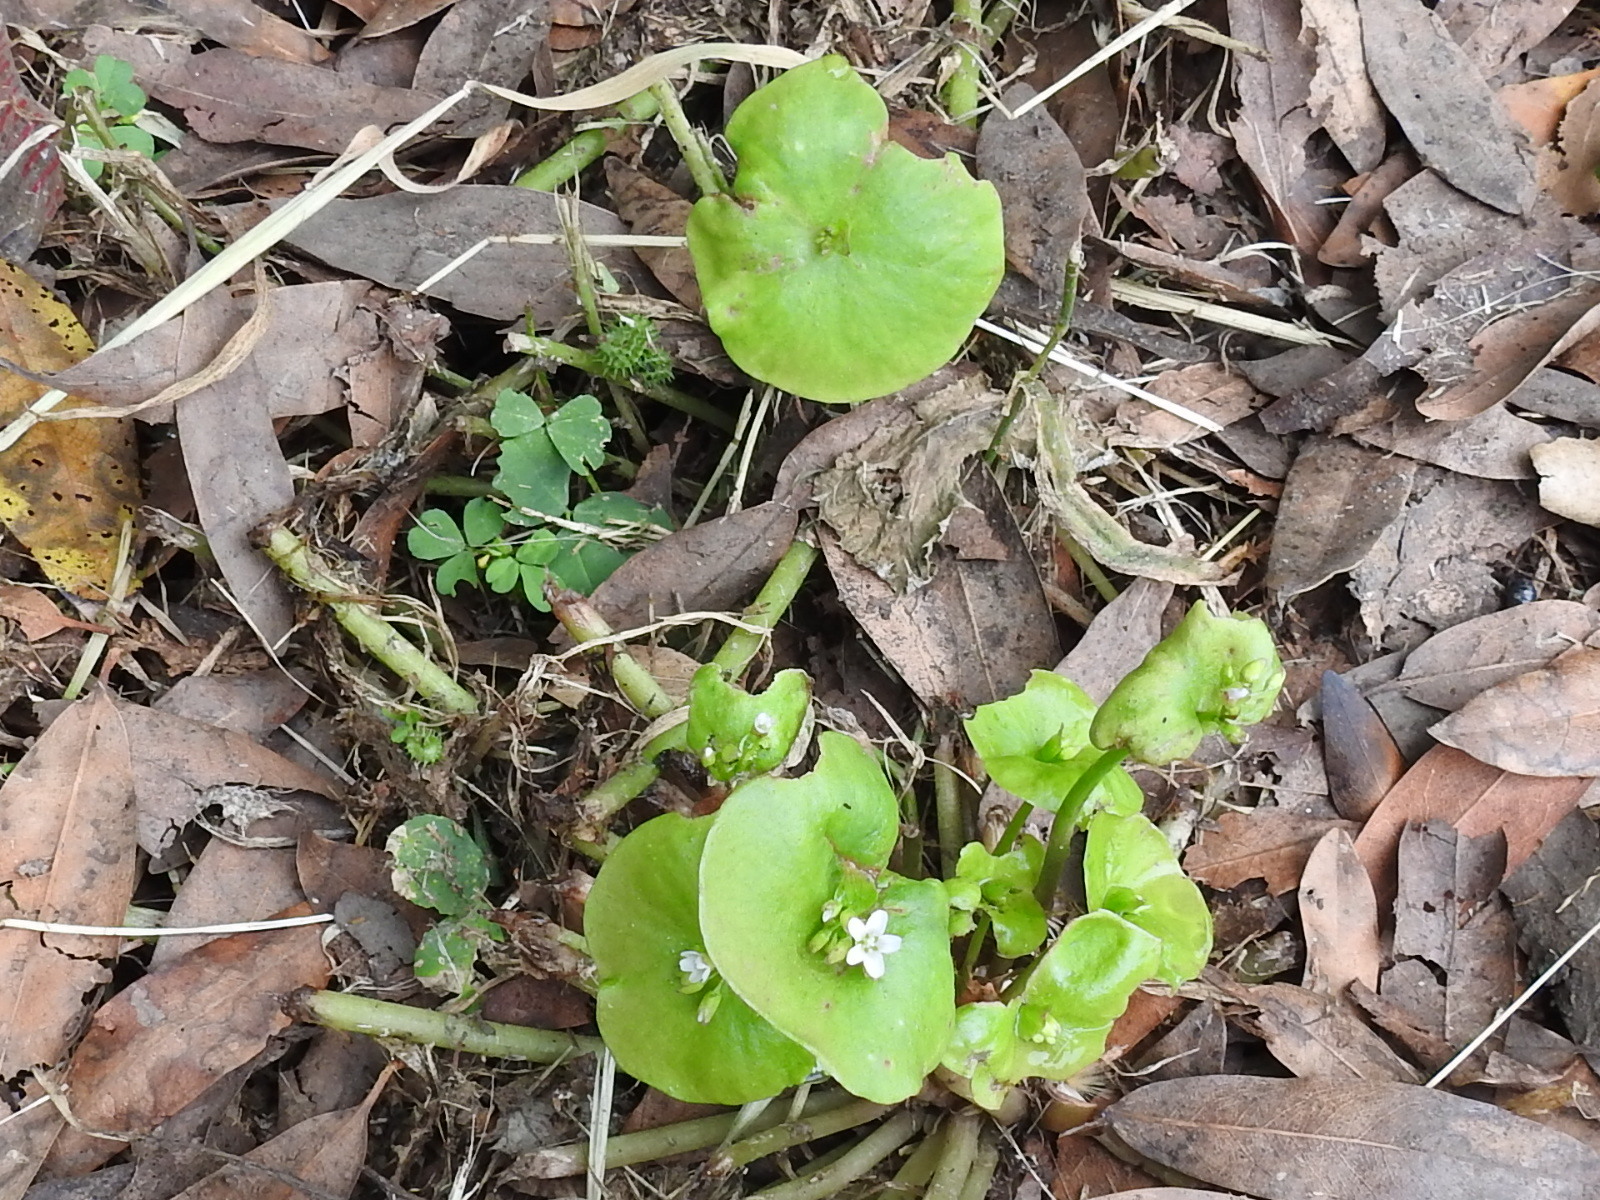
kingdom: Plantae
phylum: Tracheophyta
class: Magnoliopsida
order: Caryophyllales
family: Montiaceae
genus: Claytonia
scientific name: Claytonia perfoliata
